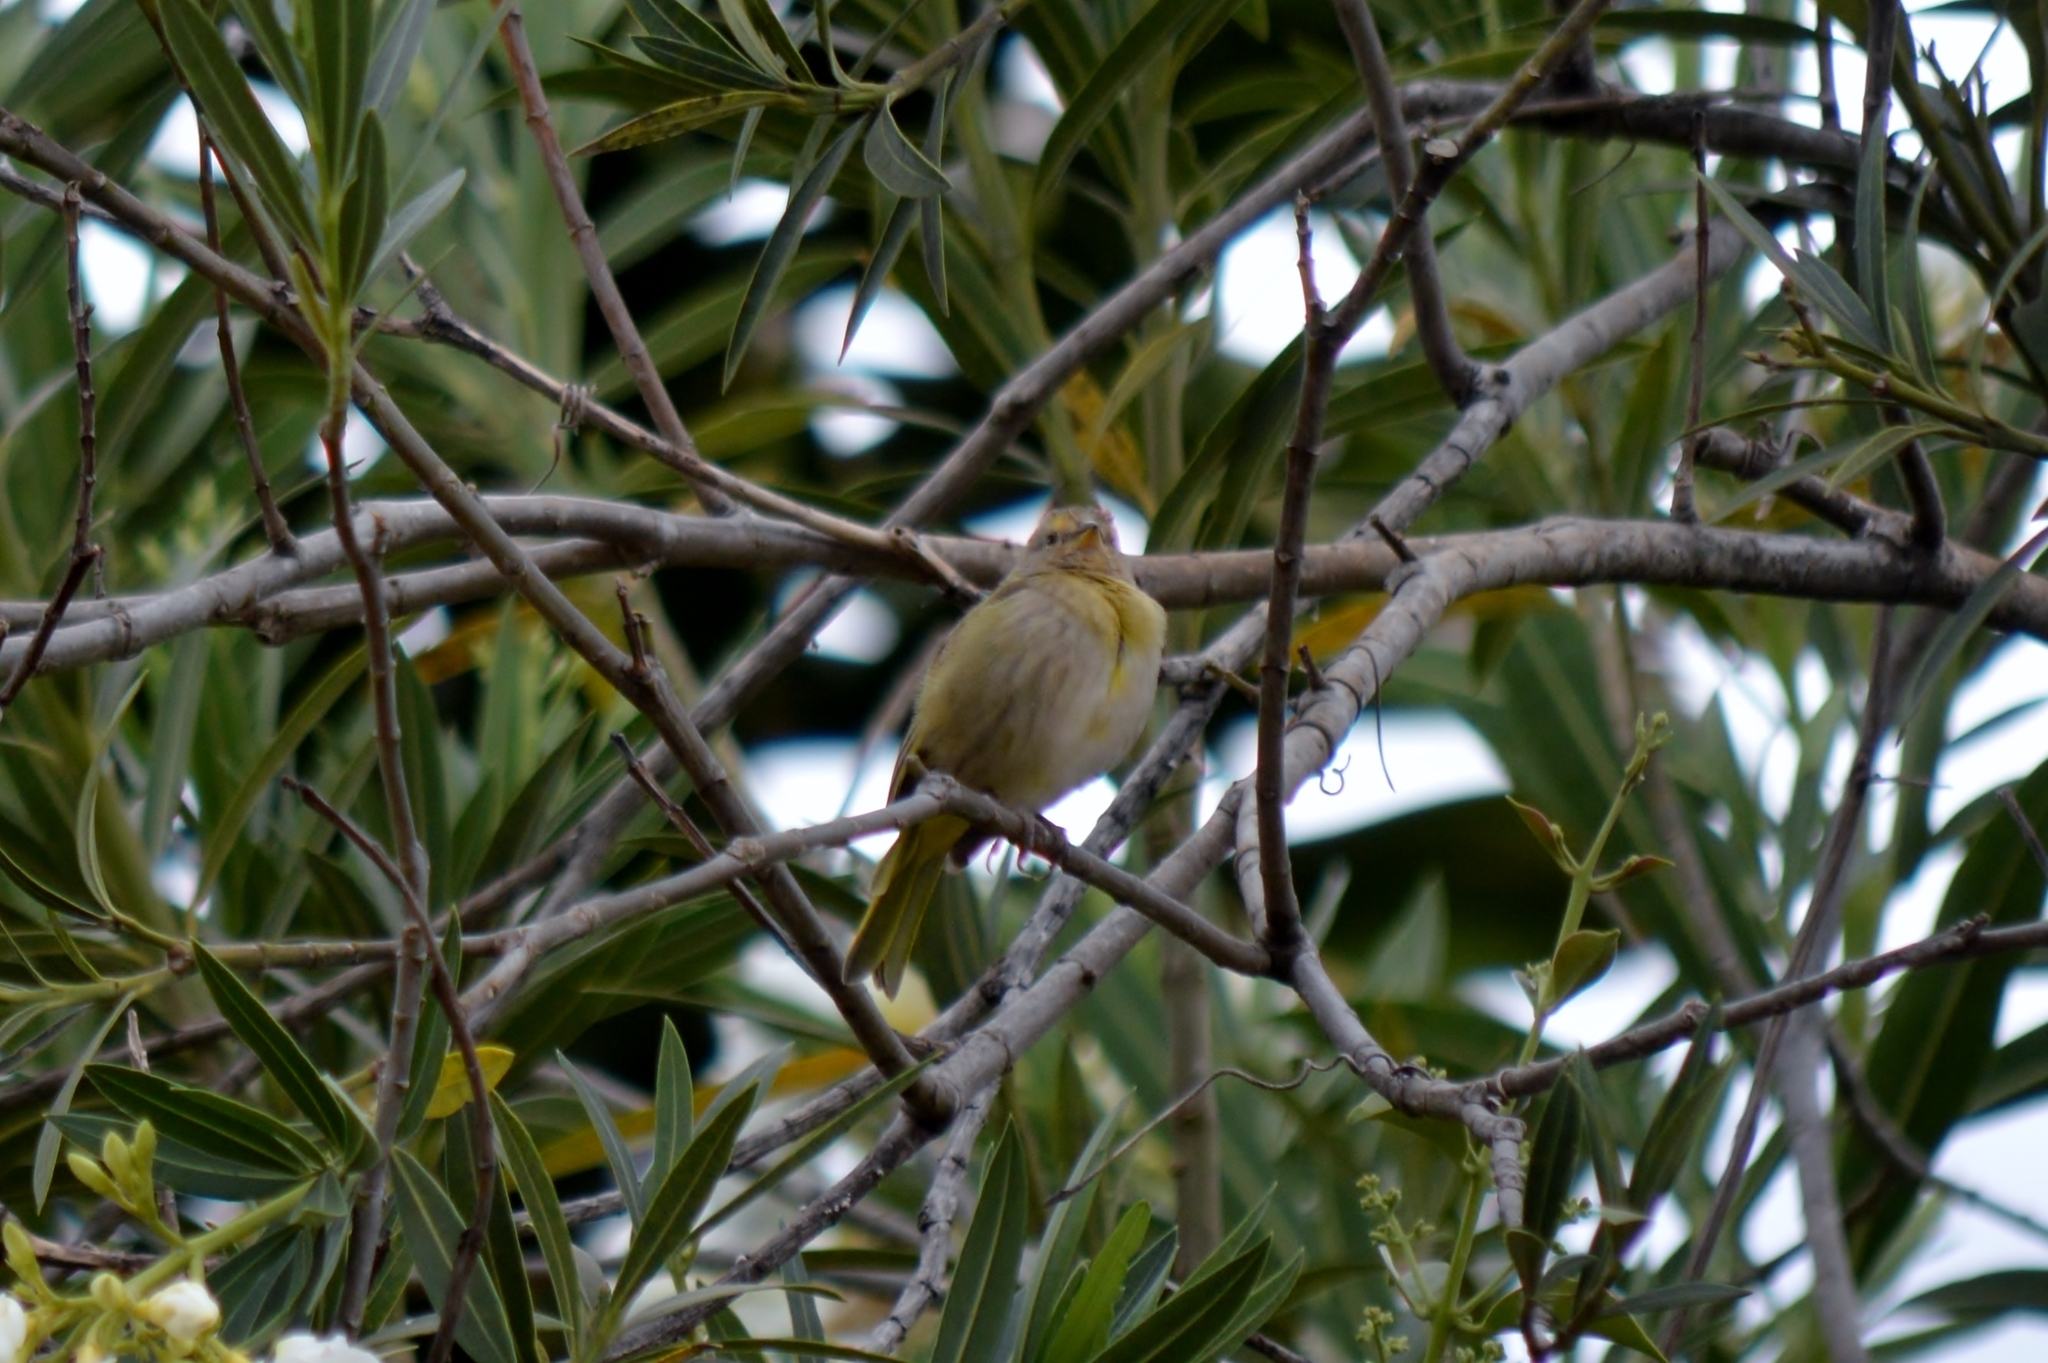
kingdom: Animalia
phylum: Chordata
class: Aves
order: Passeriformes
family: Thraupidae
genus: Sicalis
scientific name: Sicalis flaveola
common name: Saffron finch
